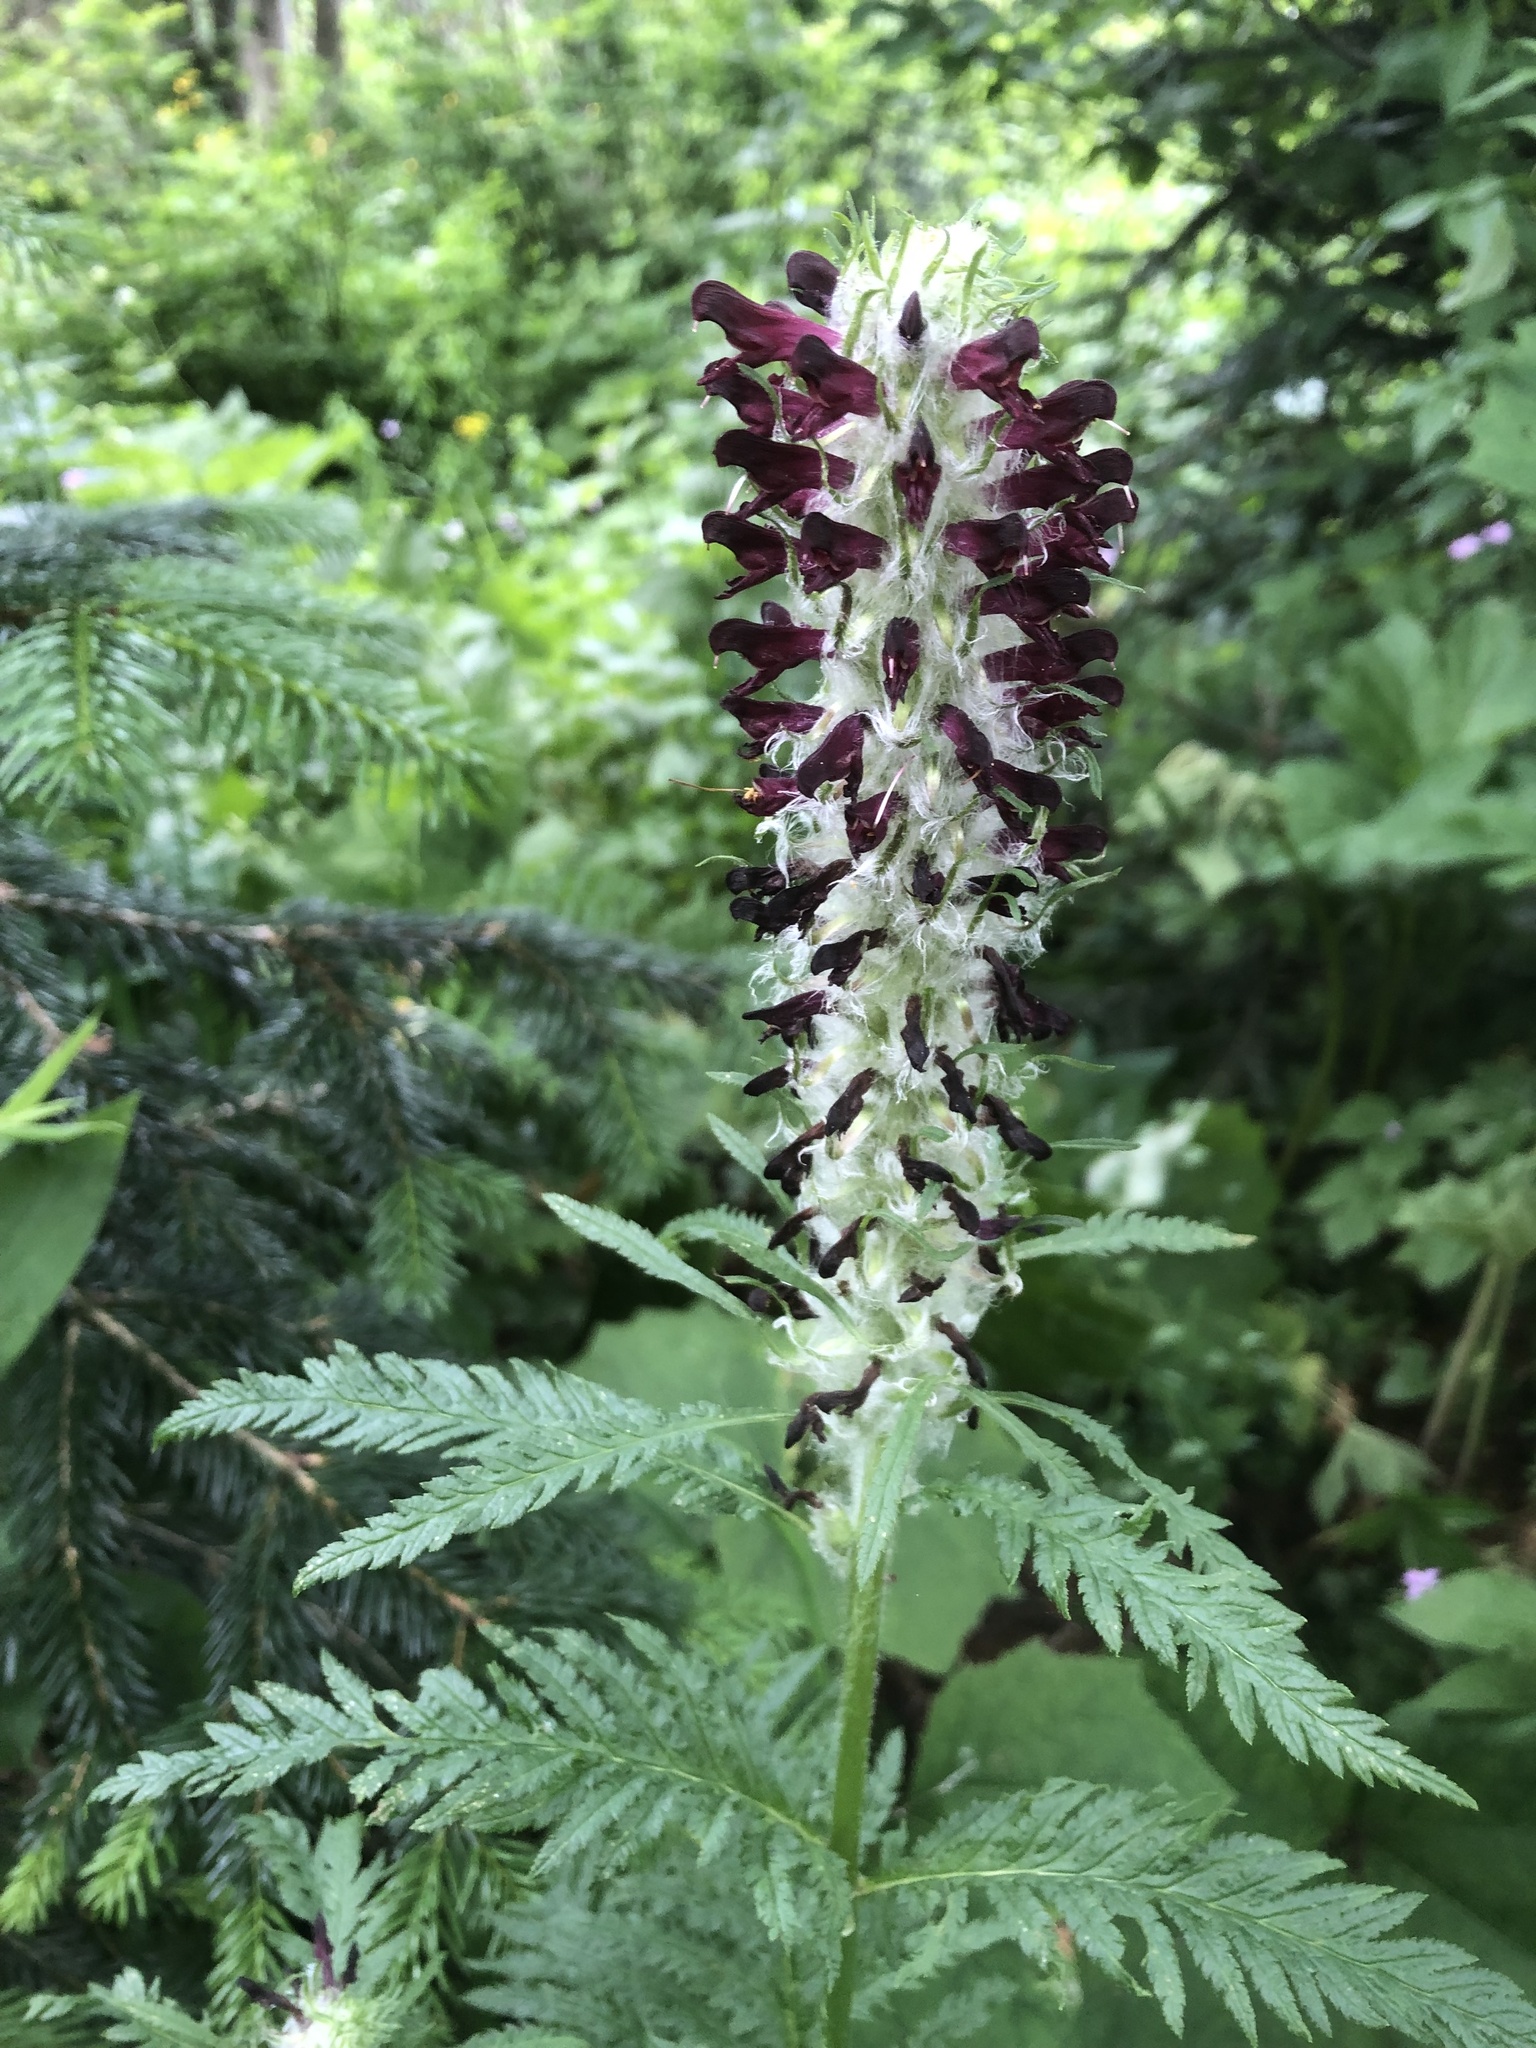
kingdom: Plantae
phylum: Tracheophyta
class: Magnoliopsida
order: Lamiales
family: Orobanchaceae
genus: Pedicularis
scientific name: Pedicularis atropurpurea
